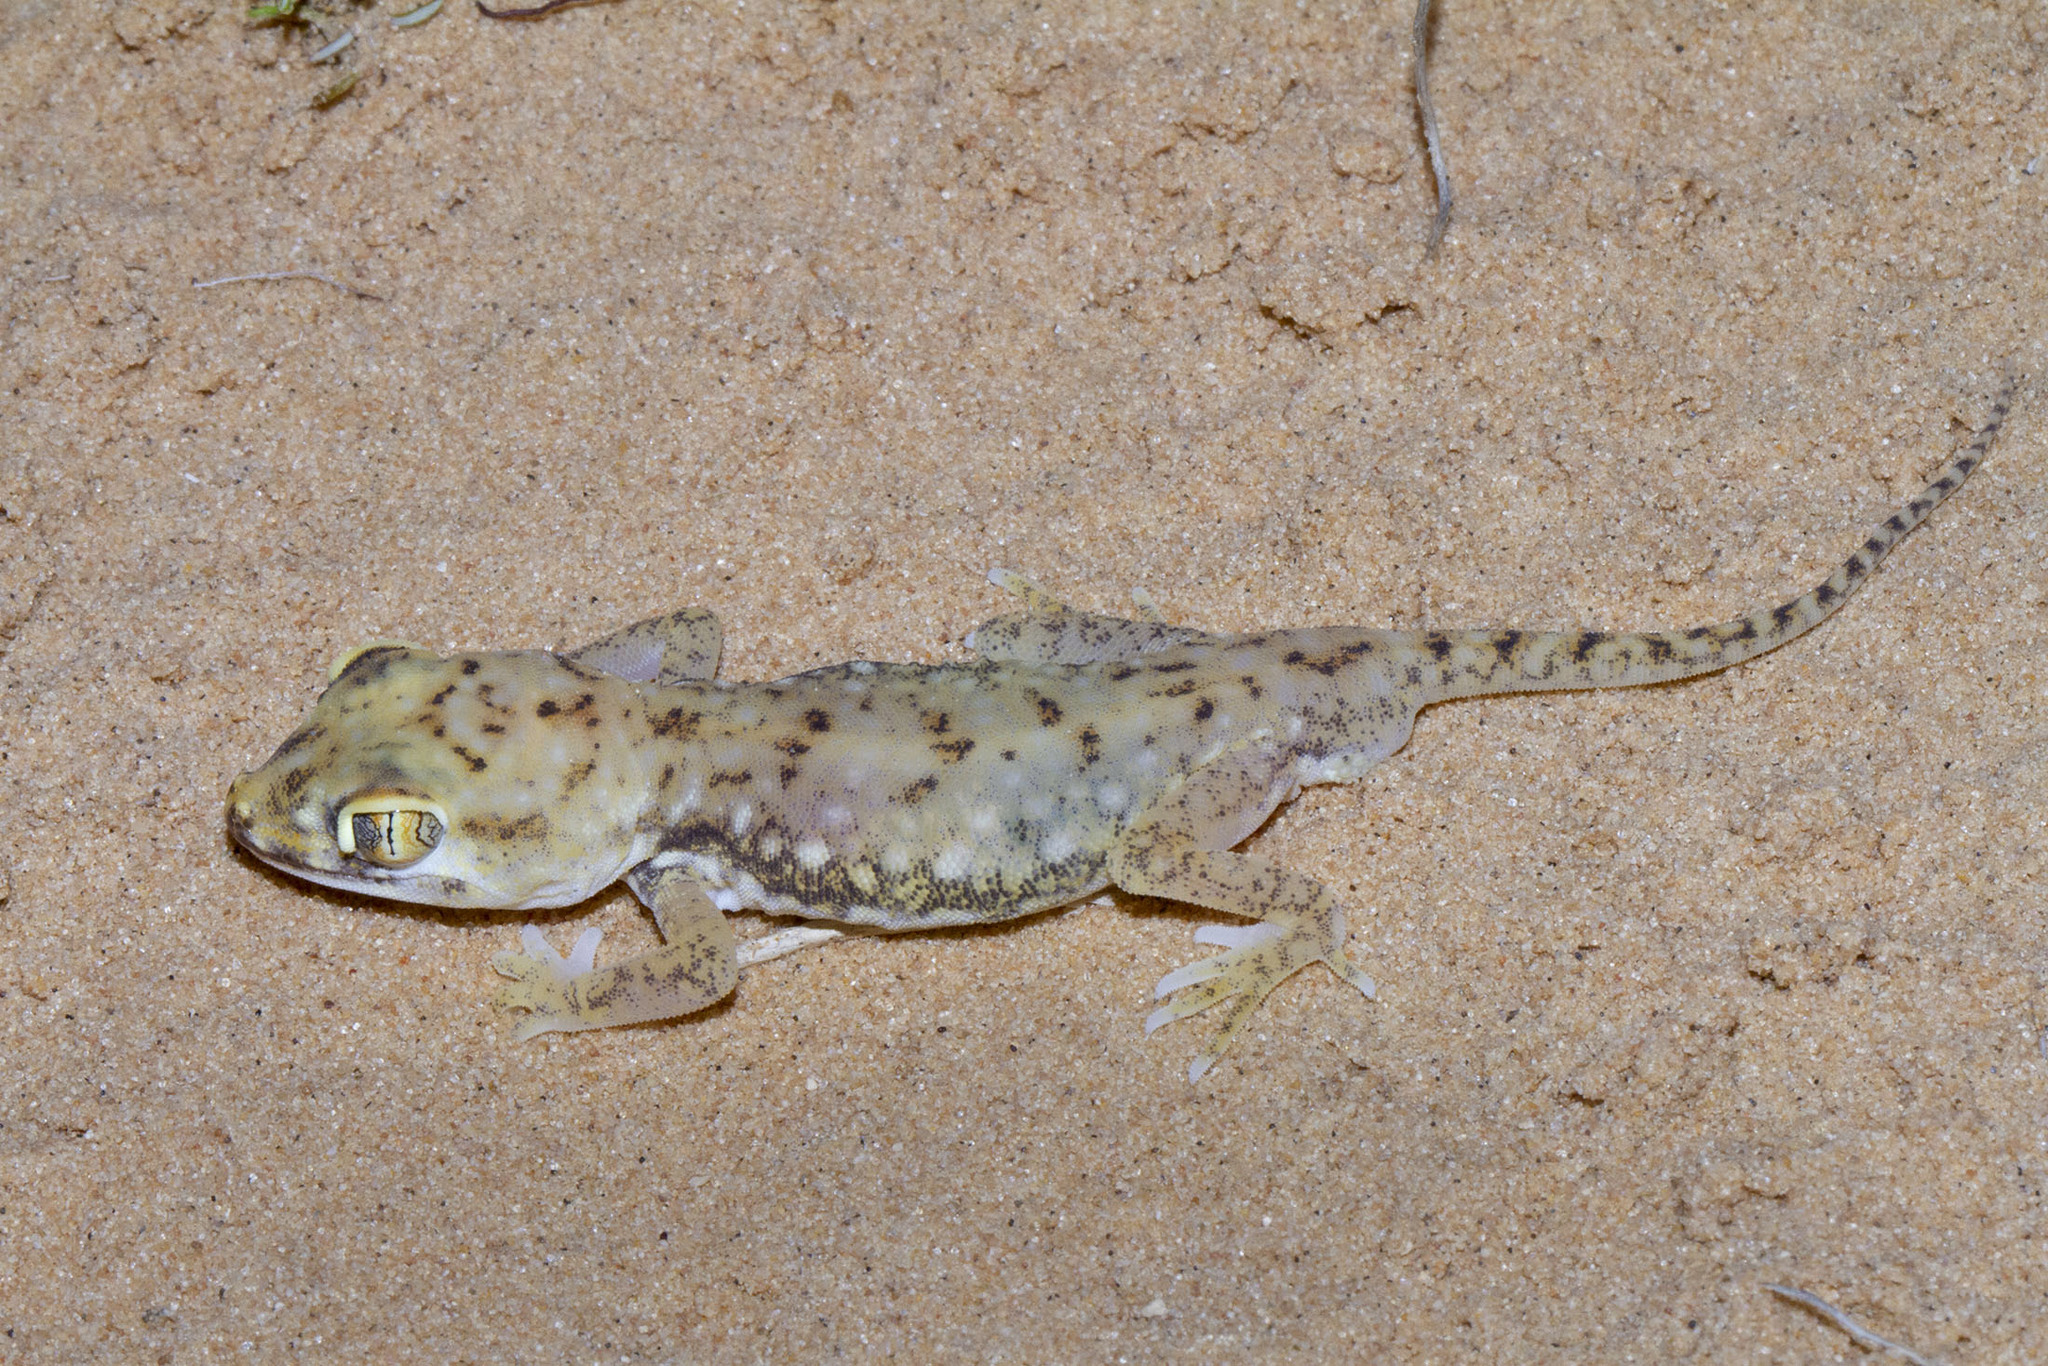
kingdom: Animalia
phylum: Chordata
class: Squamata
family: Gekkonidae
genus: Stenodactylus
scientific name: Stenodactylus petrii
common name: Anderson's short-fingered gecko
